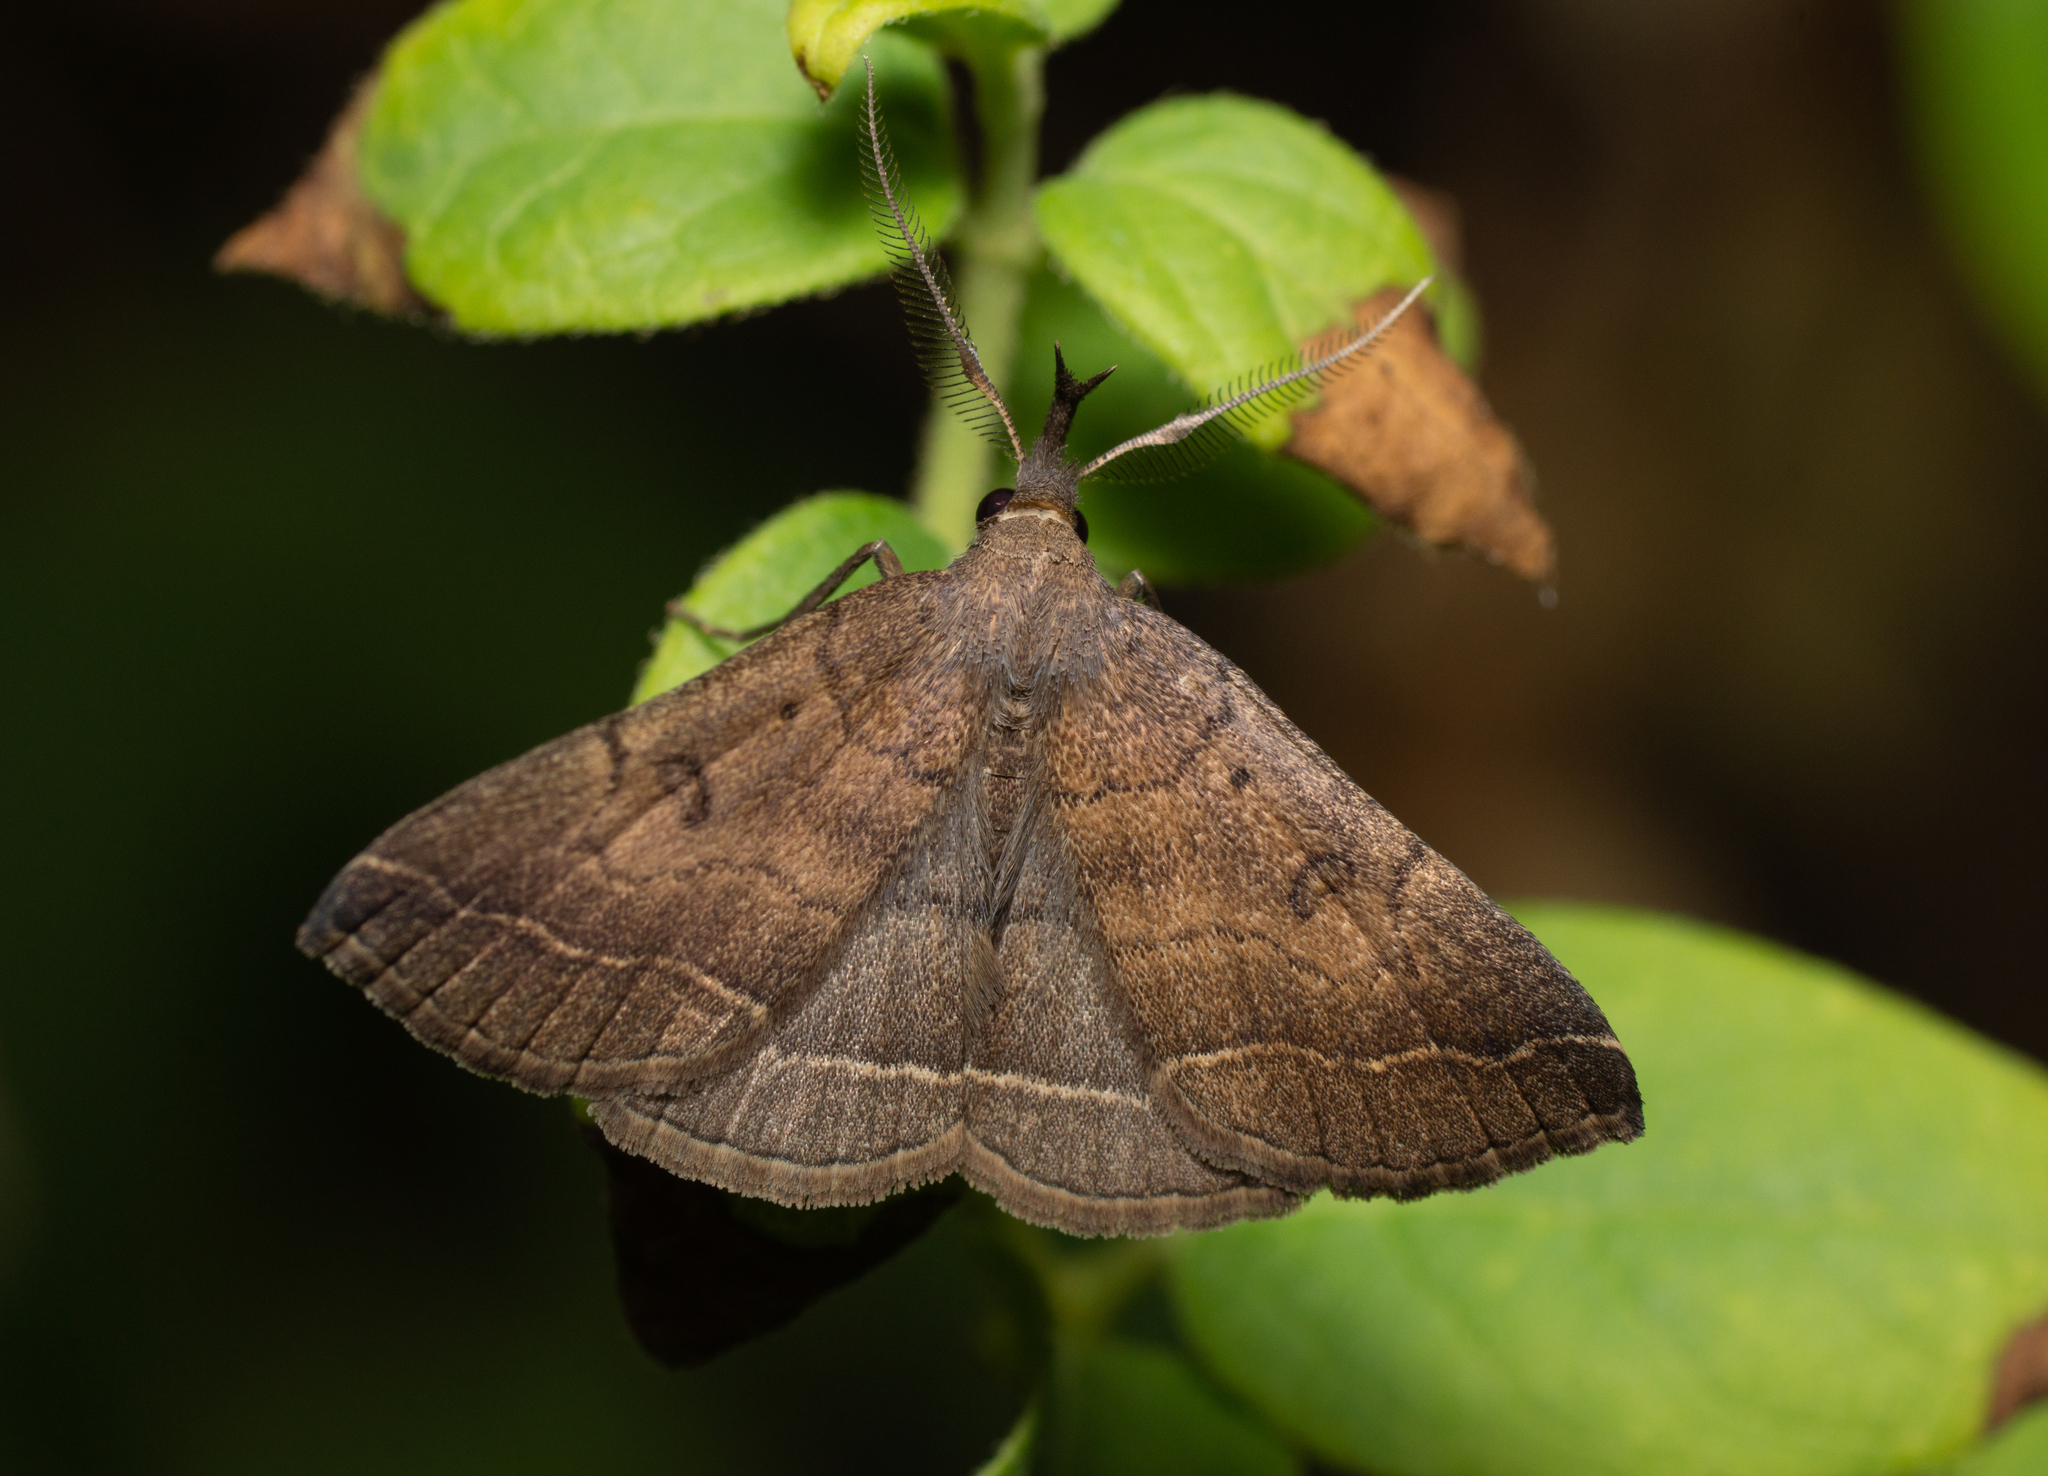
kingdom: Animalia
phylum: Arthropoda
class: Insecta
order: Lepidoptera
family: Erebidae
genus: Pechipogo
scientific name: Pechipogo plumigeralis
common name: Plumed fan-foot
